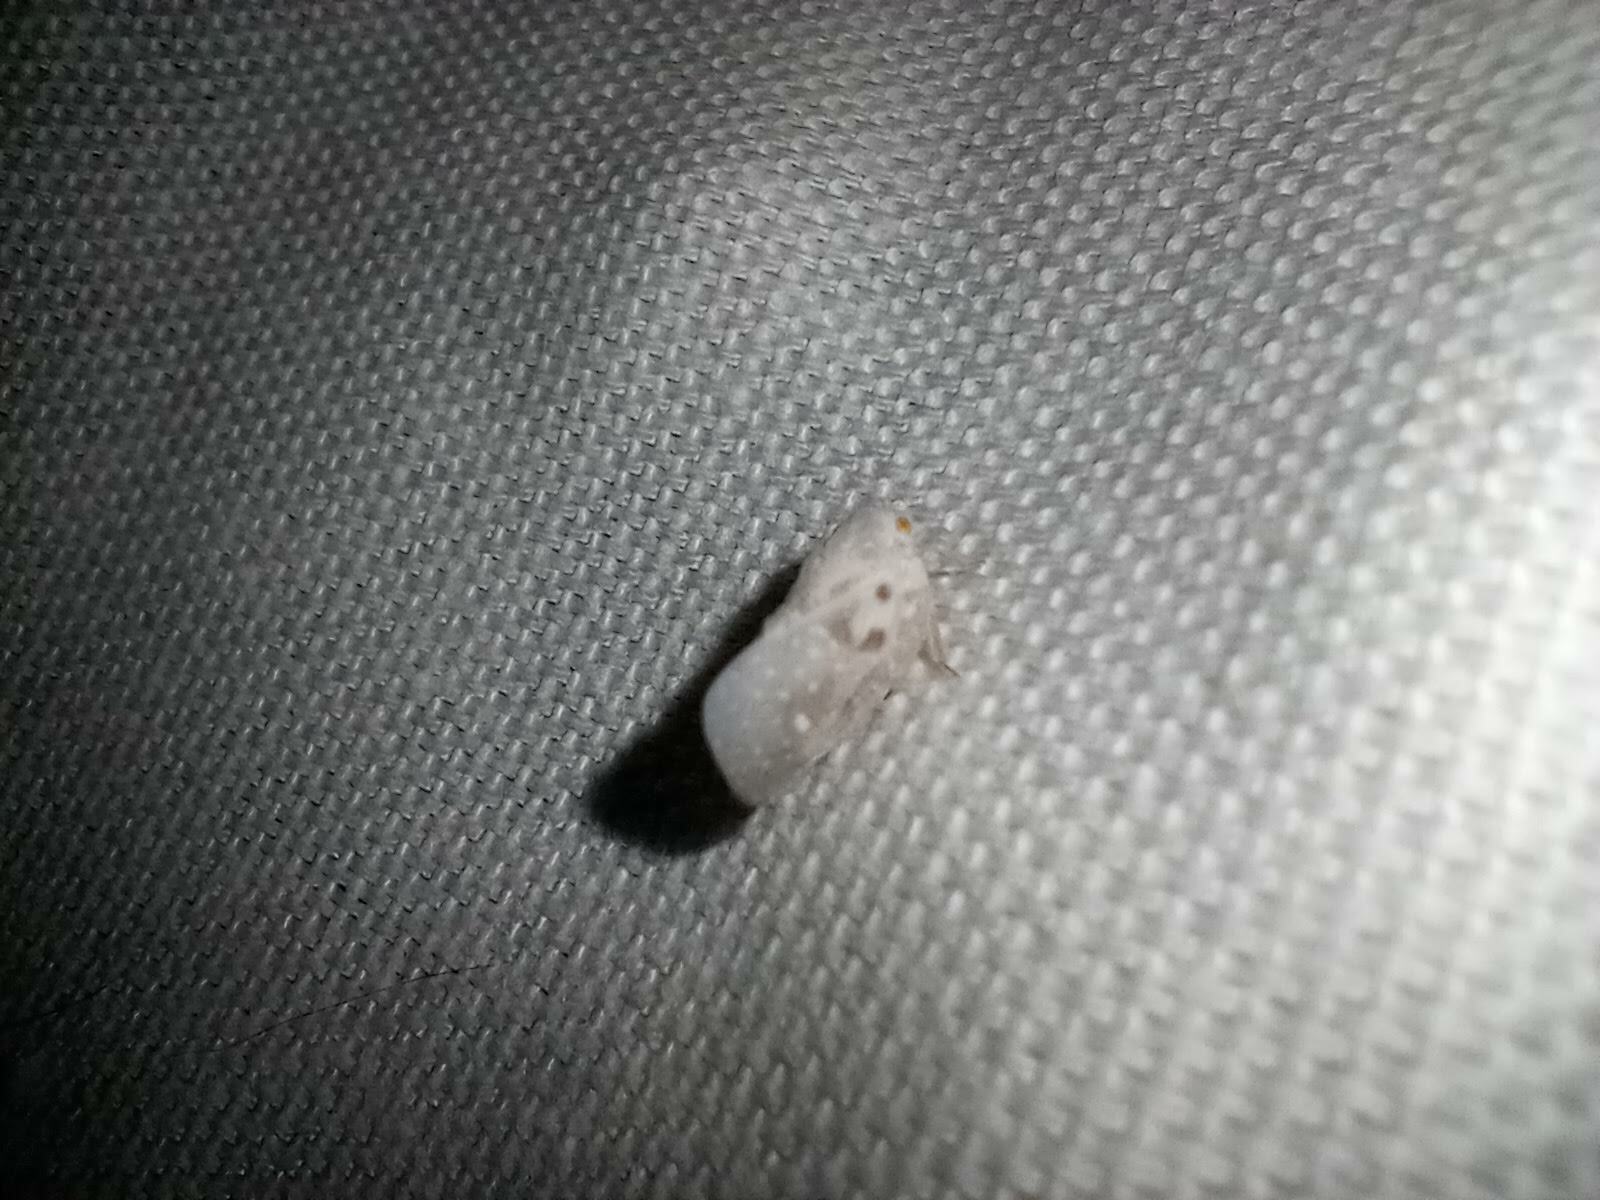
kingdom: Animalia
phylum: Arthropoda
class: Insecta
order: Hemiptera
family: Flatidae
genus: Metcalfa
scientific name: Metcalfa pruinosa
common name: Citrus flatid planthopper
